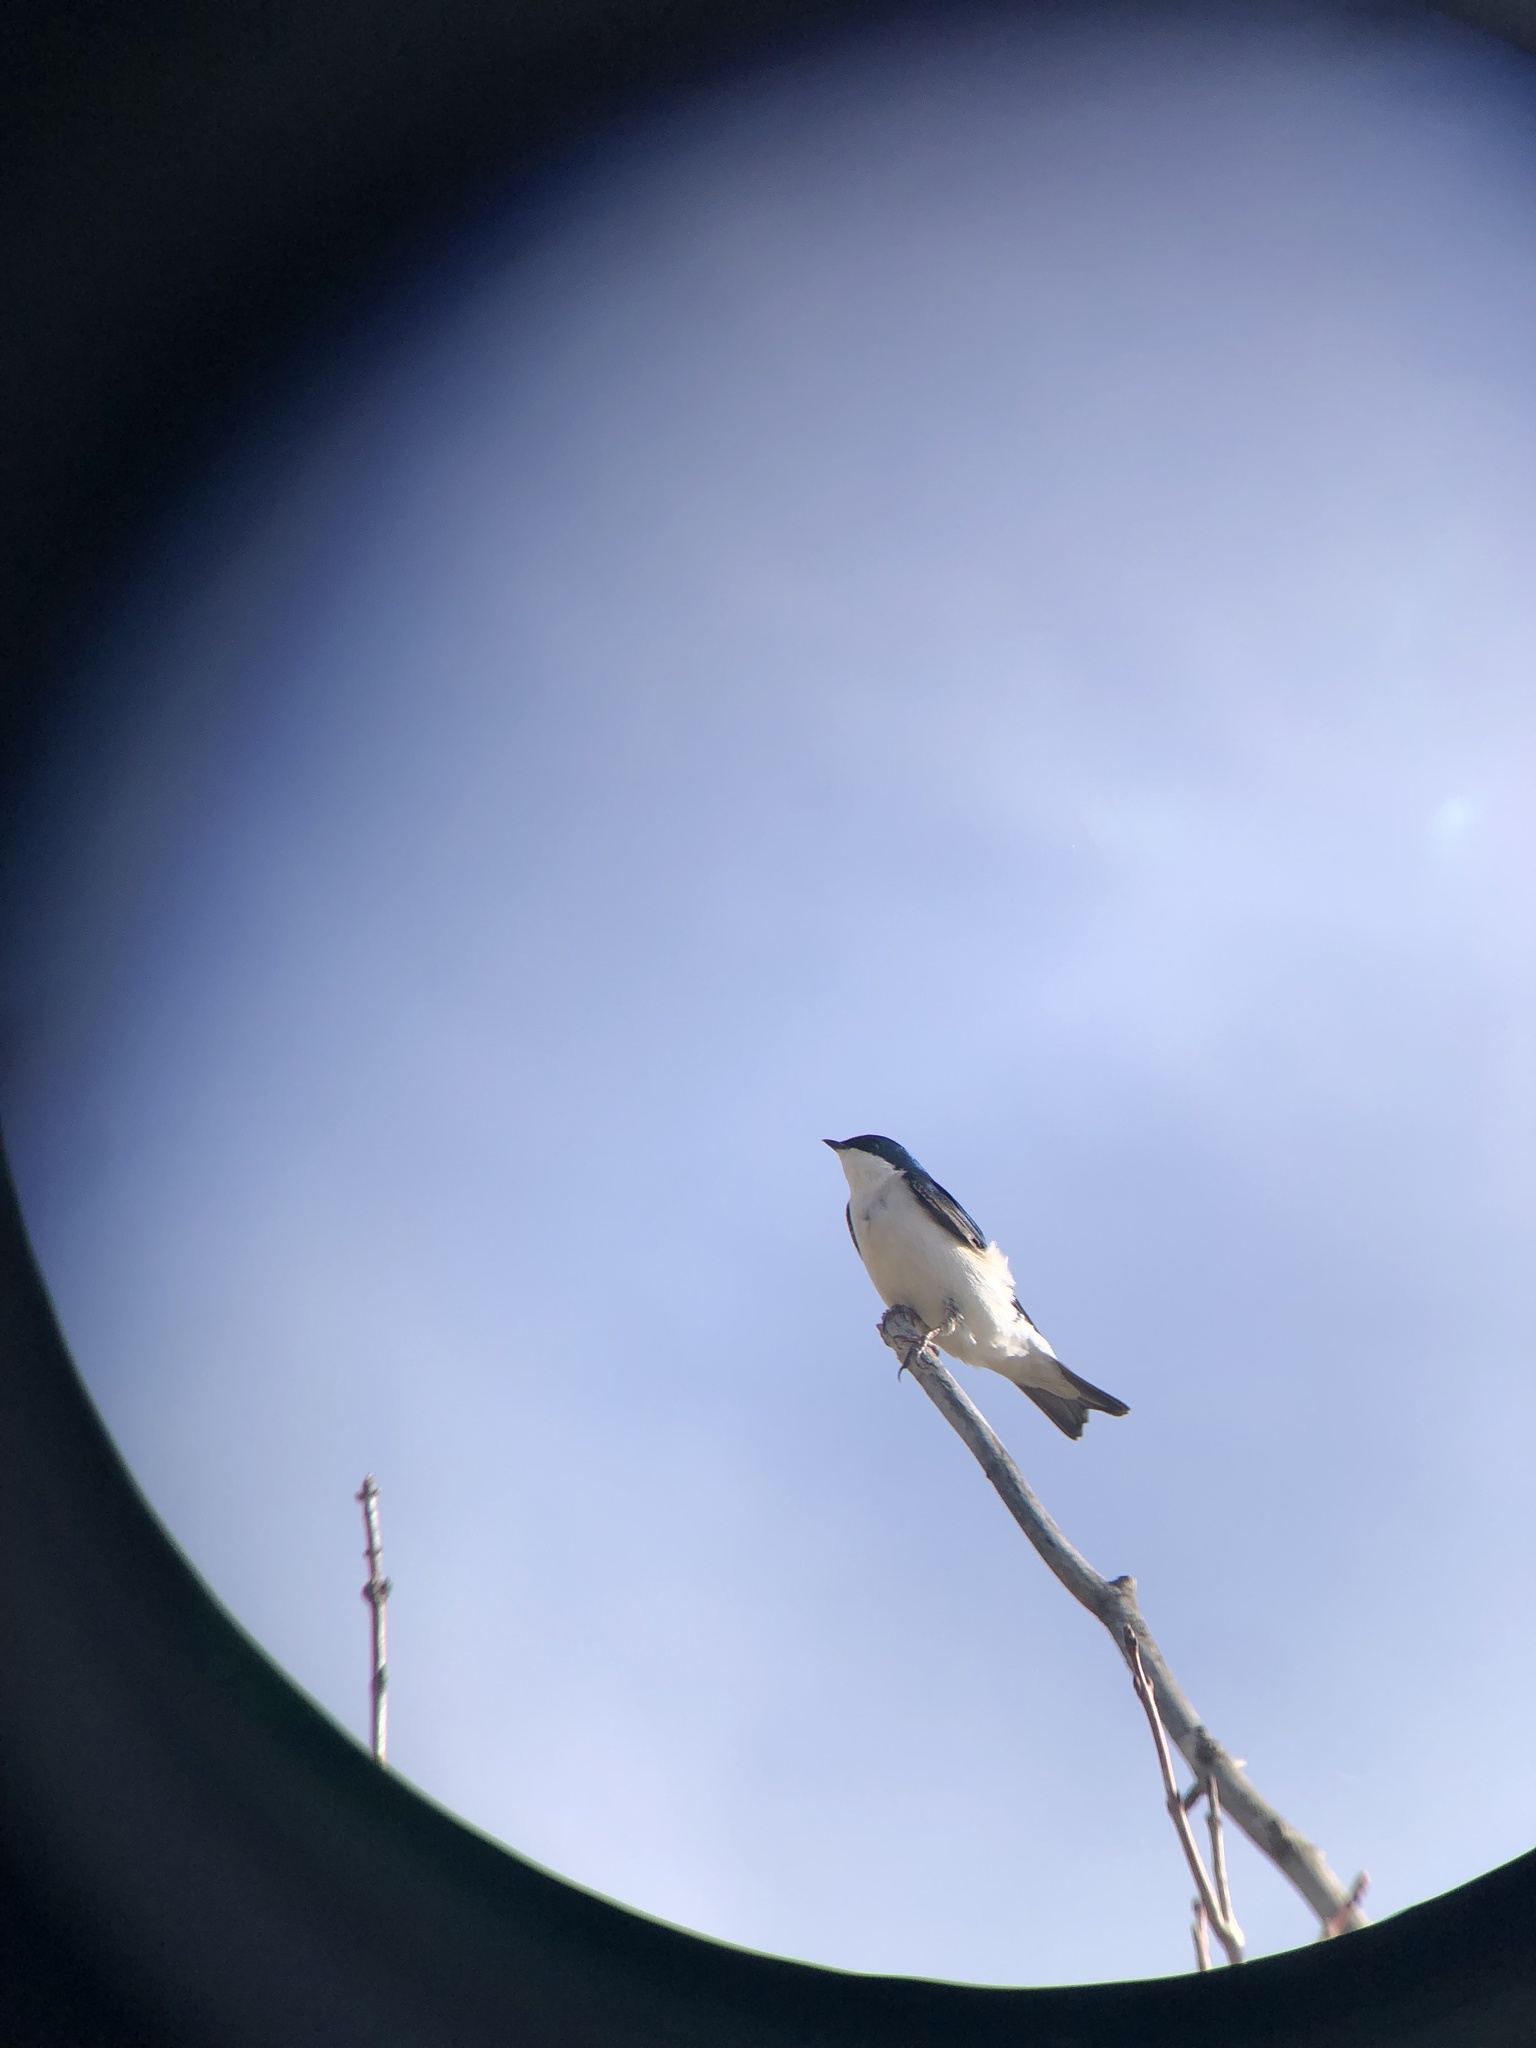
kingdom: Animalia
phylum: Chordata
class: Aves
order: Passeriformes
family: Hirundinidae
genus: Tachycineta
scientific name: Tachycineta bicolor
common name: Tree swallow
